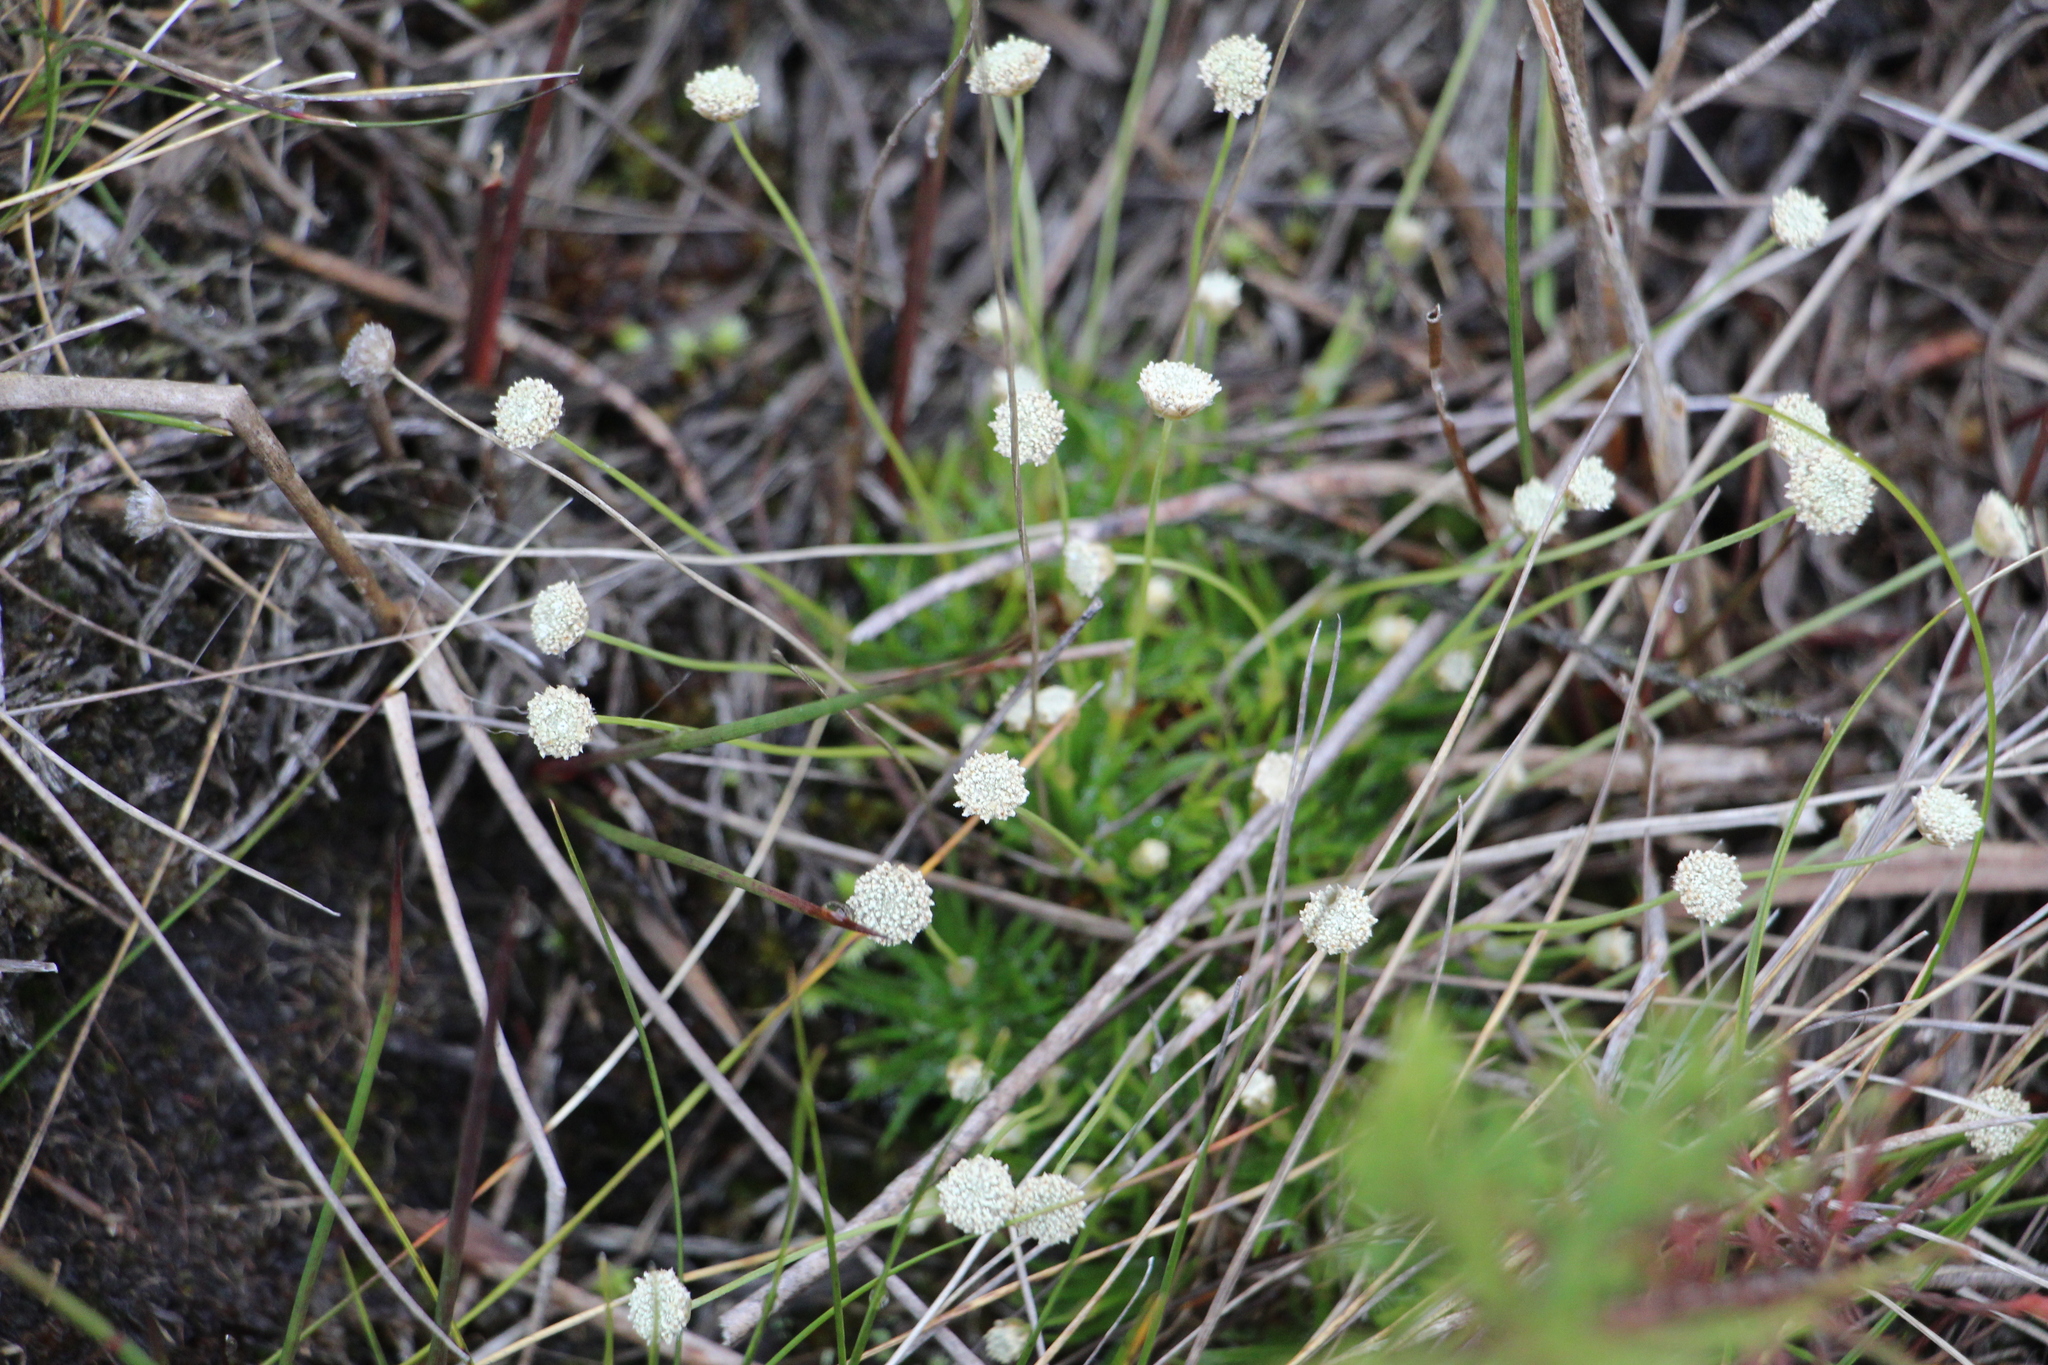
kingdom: Plantae
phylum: Tracheophyta
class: Liliopsida
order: Poales
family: Eriocaulaceae
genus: Paepalanthus
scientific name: Paepalanthus dendroides
